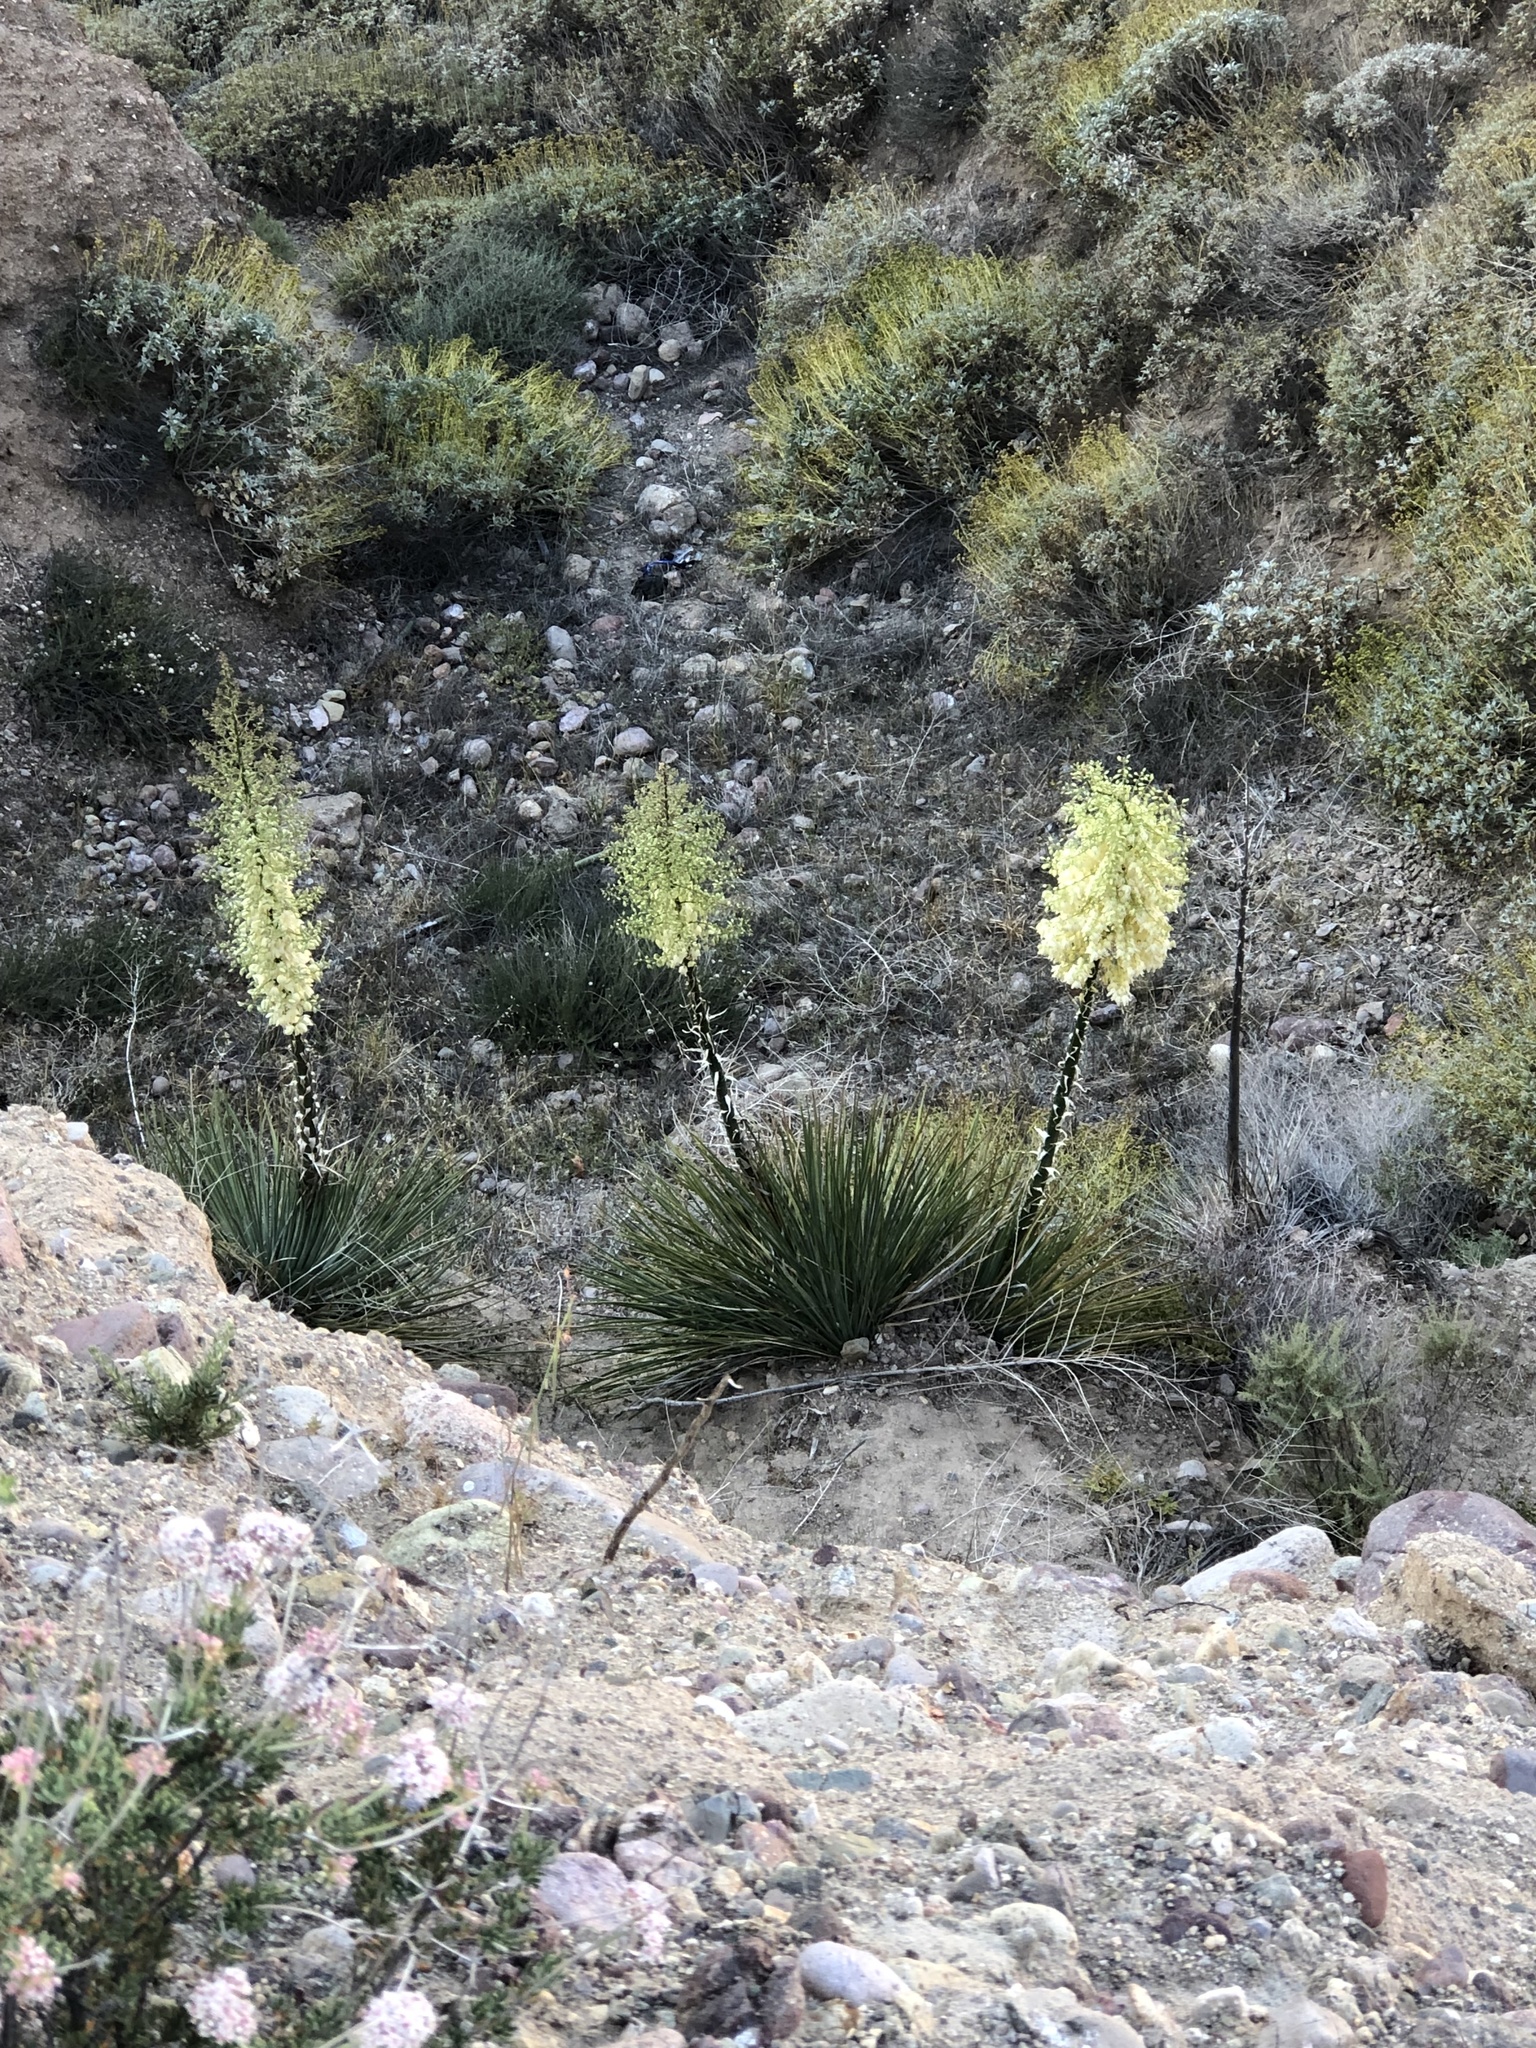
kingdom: Plantae
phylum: Tracheophyta
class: Liliopsida
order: Asparagales
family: Asparagaceae
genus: Hesperoyucca
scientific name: Hesperoyucca whipplei
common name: Our lord's-candle
